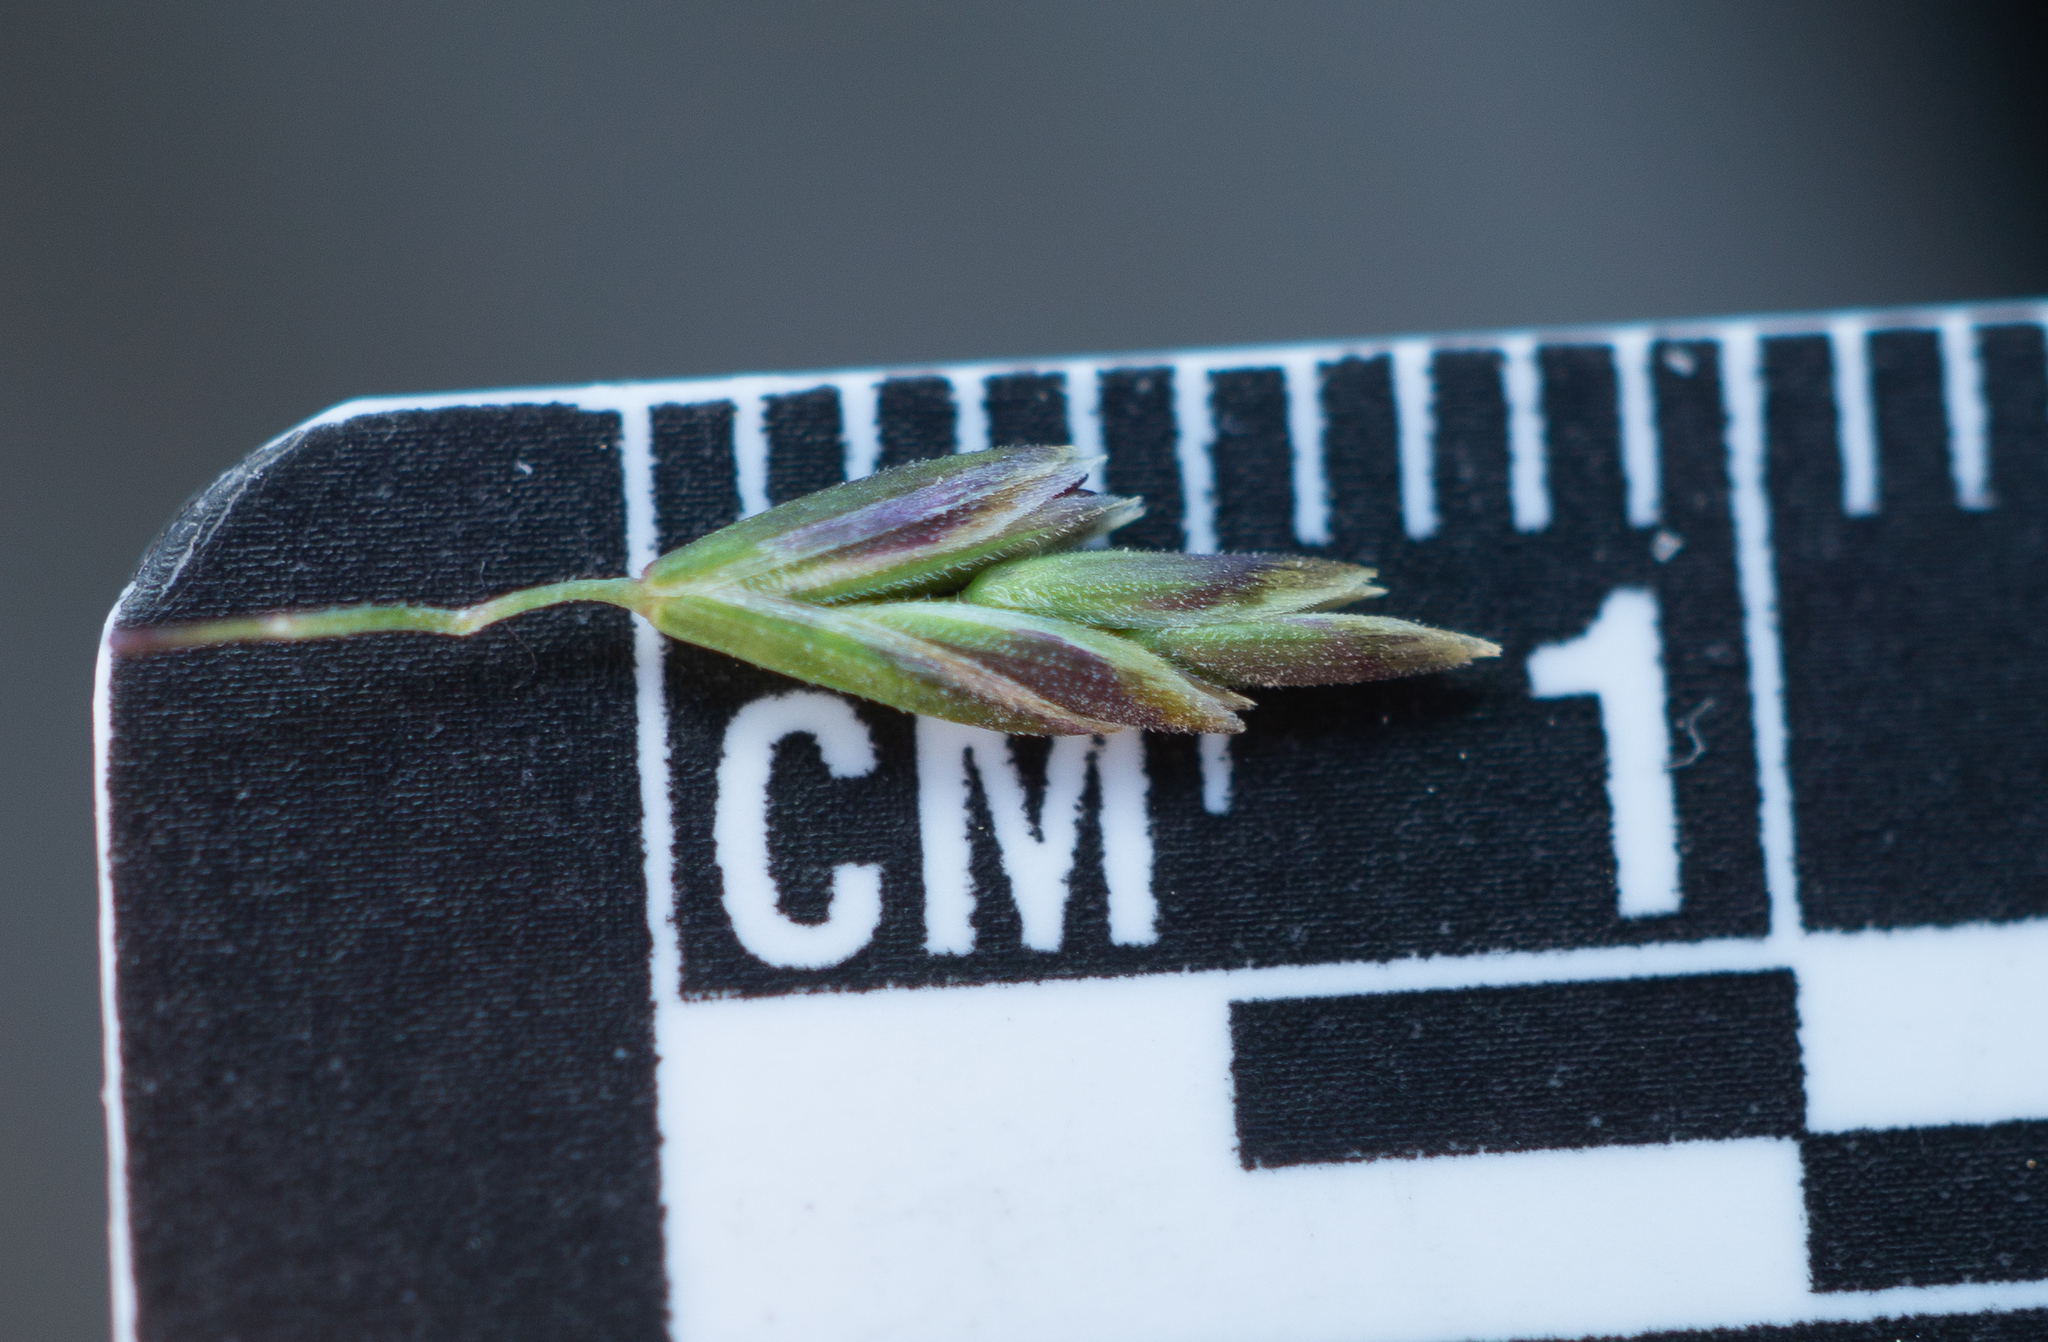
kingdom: Plantae
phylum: Tracheophyta
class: Liliopsida
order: Poales
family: Poaceae
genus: Poa
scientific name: Poa secunda
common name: Sandberg bluegrass
